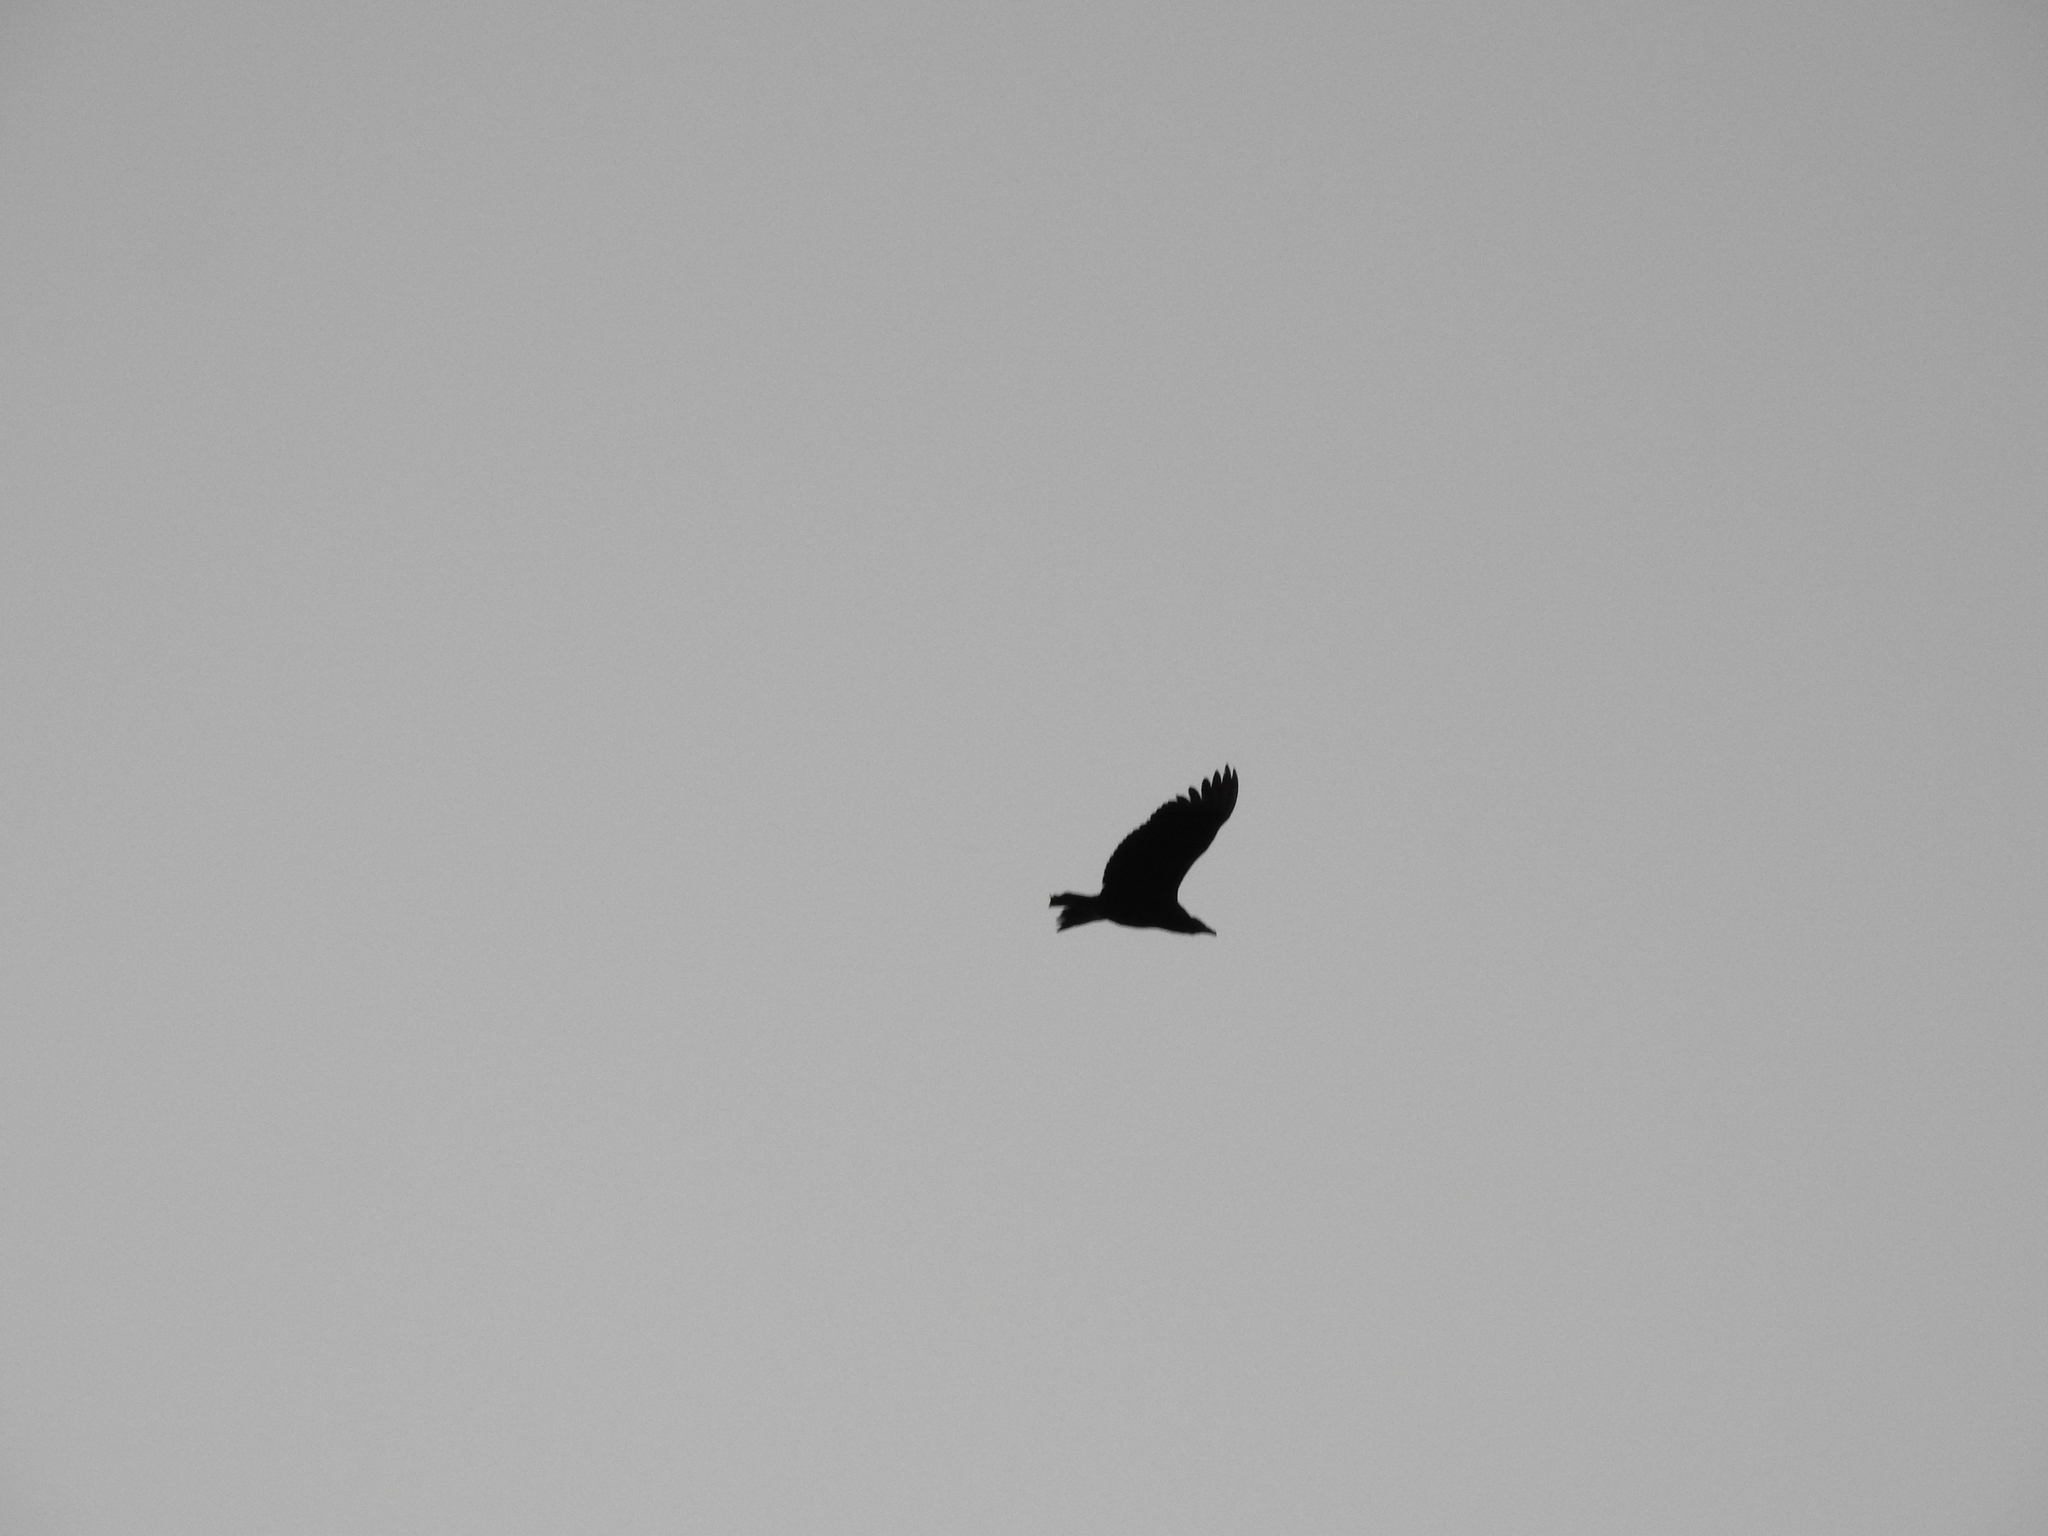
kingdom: Animalia
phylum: Chordata
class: Aves
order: Accipitriformes
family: Cathartidae
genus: Coragyps
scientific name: Coragyps atratus
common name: Black vulture
